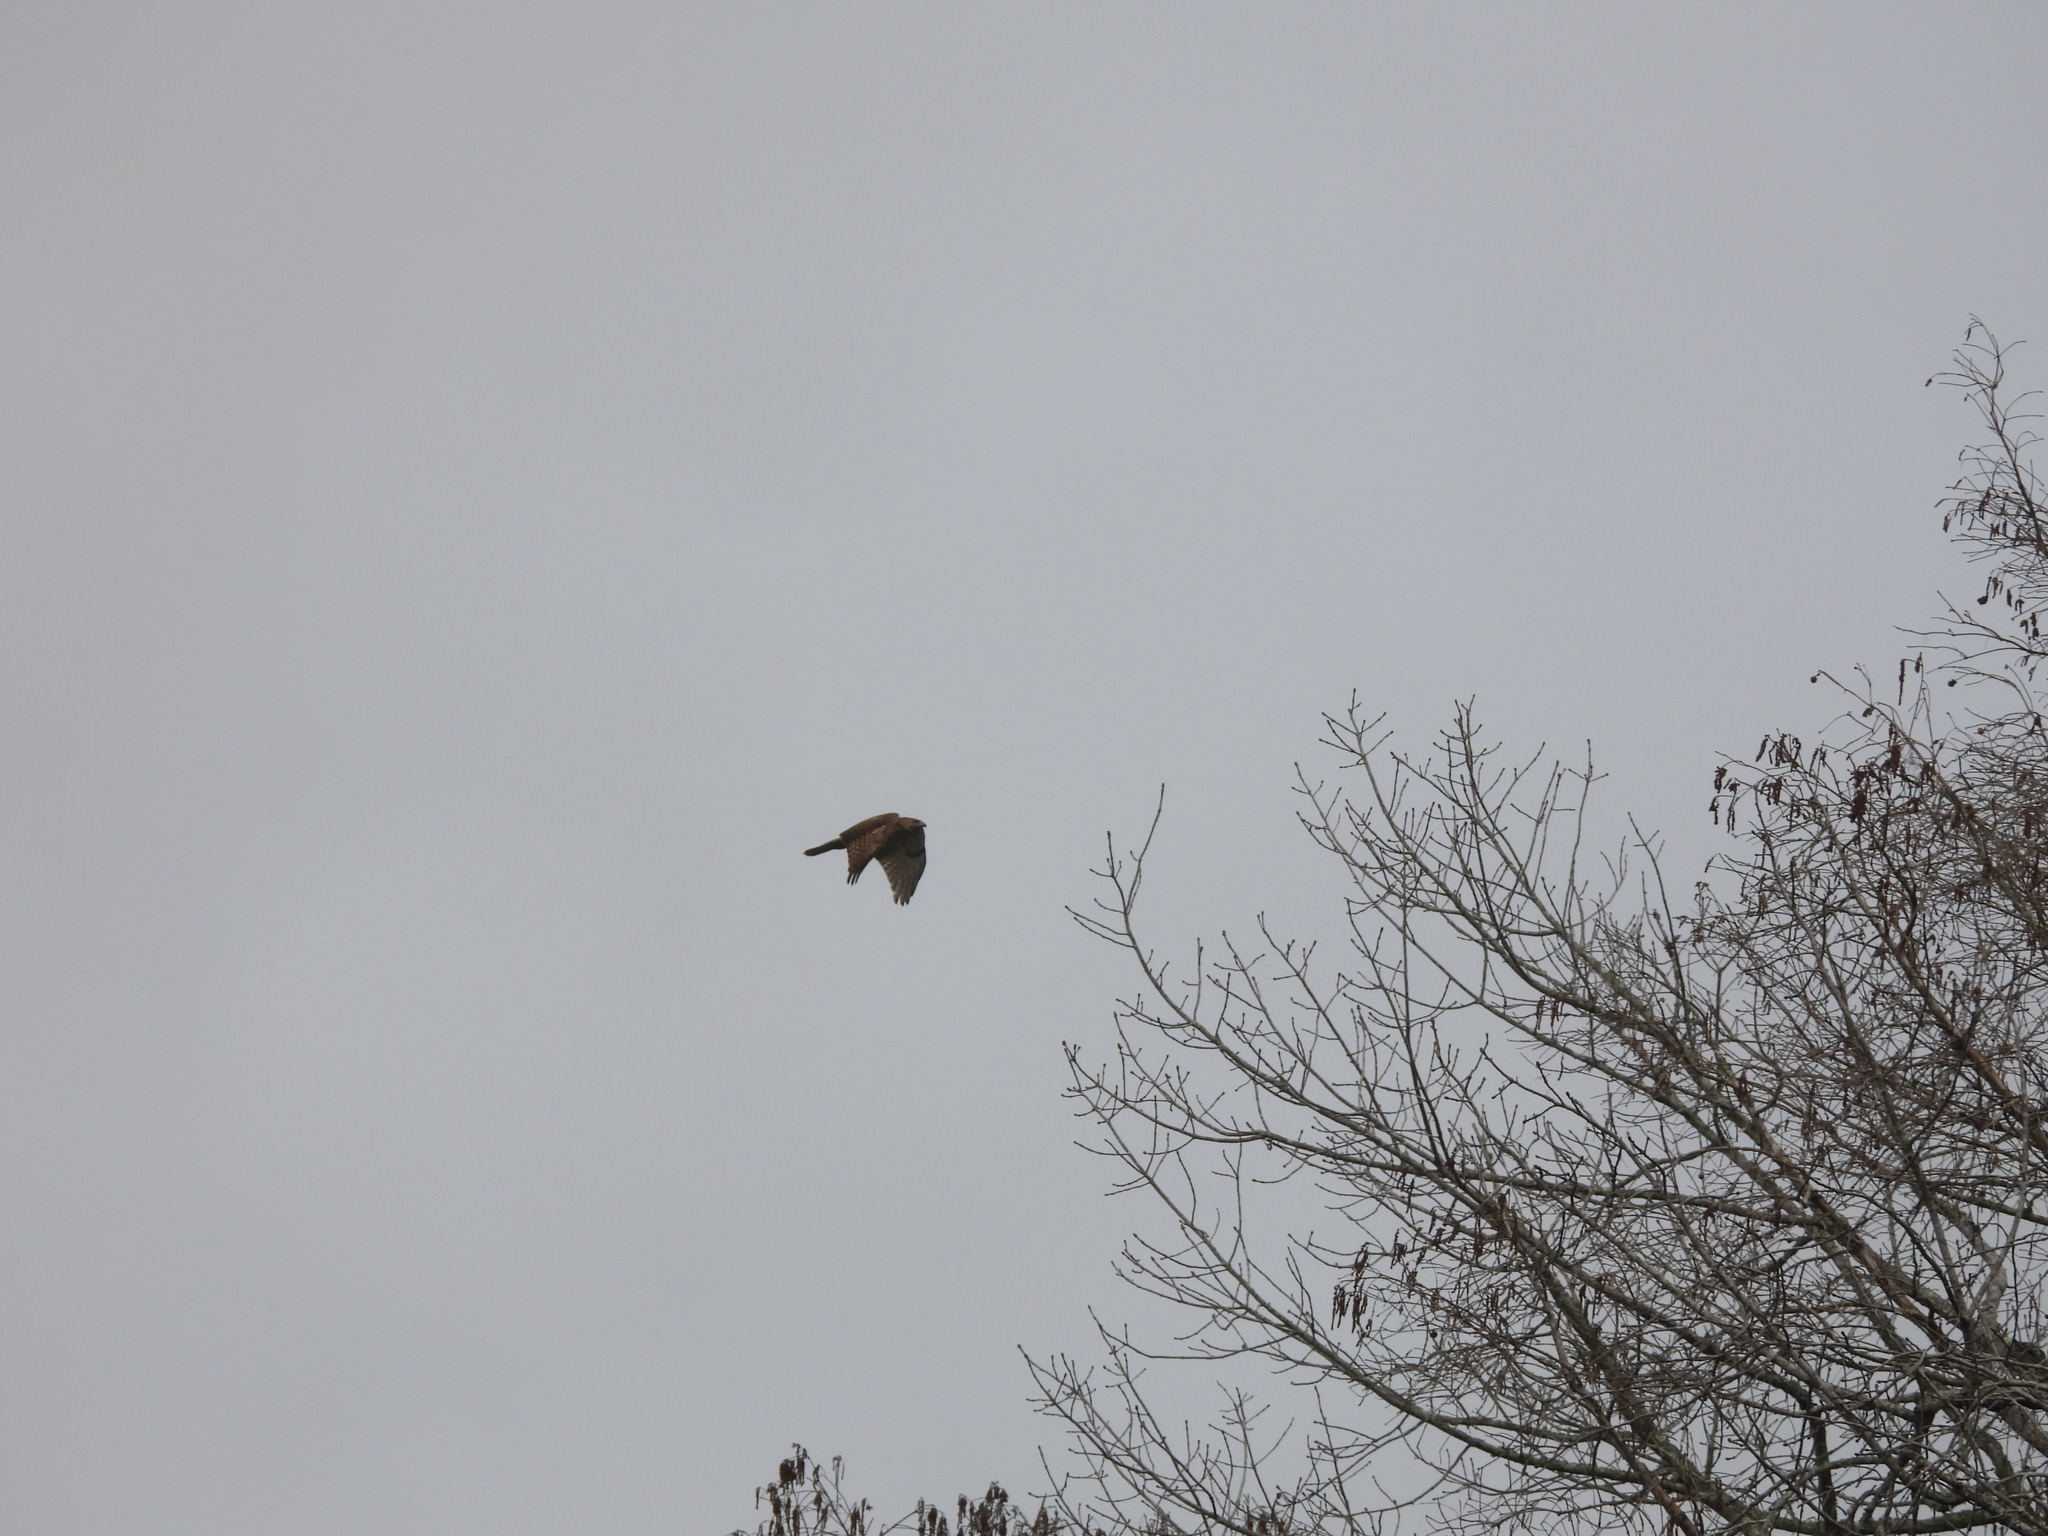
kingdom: Animalia
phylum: Chordata
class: Aves
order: Accipitriformes
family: Accipitridae
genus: Buteo
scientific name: Buteo jamaicensis
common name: Red-tailed hawk
